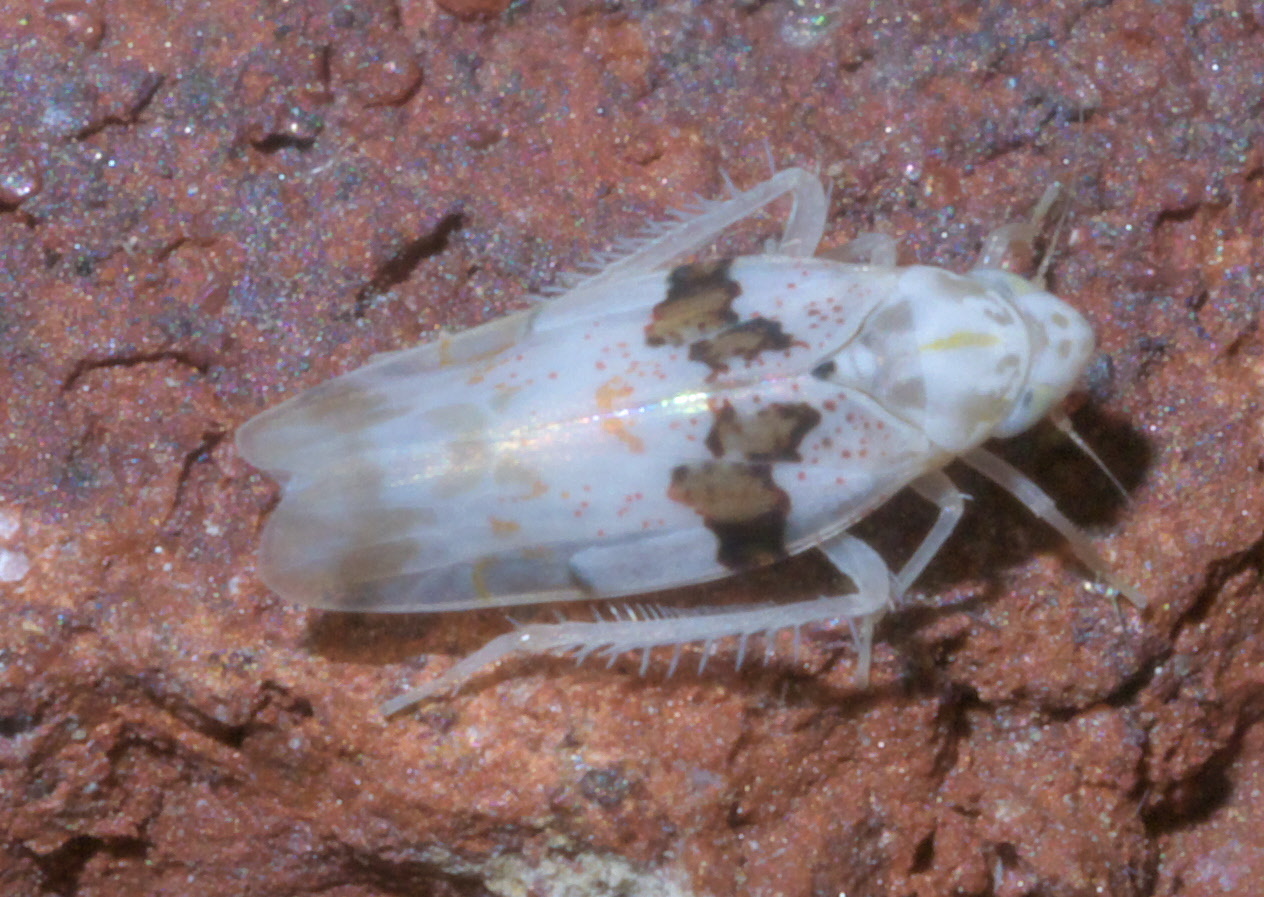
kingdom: Animalia
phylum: Arthropoda
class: Insecta
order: Hemiptera
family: Cicadellidae
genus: Hymetta
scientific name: Hymetta balteata
